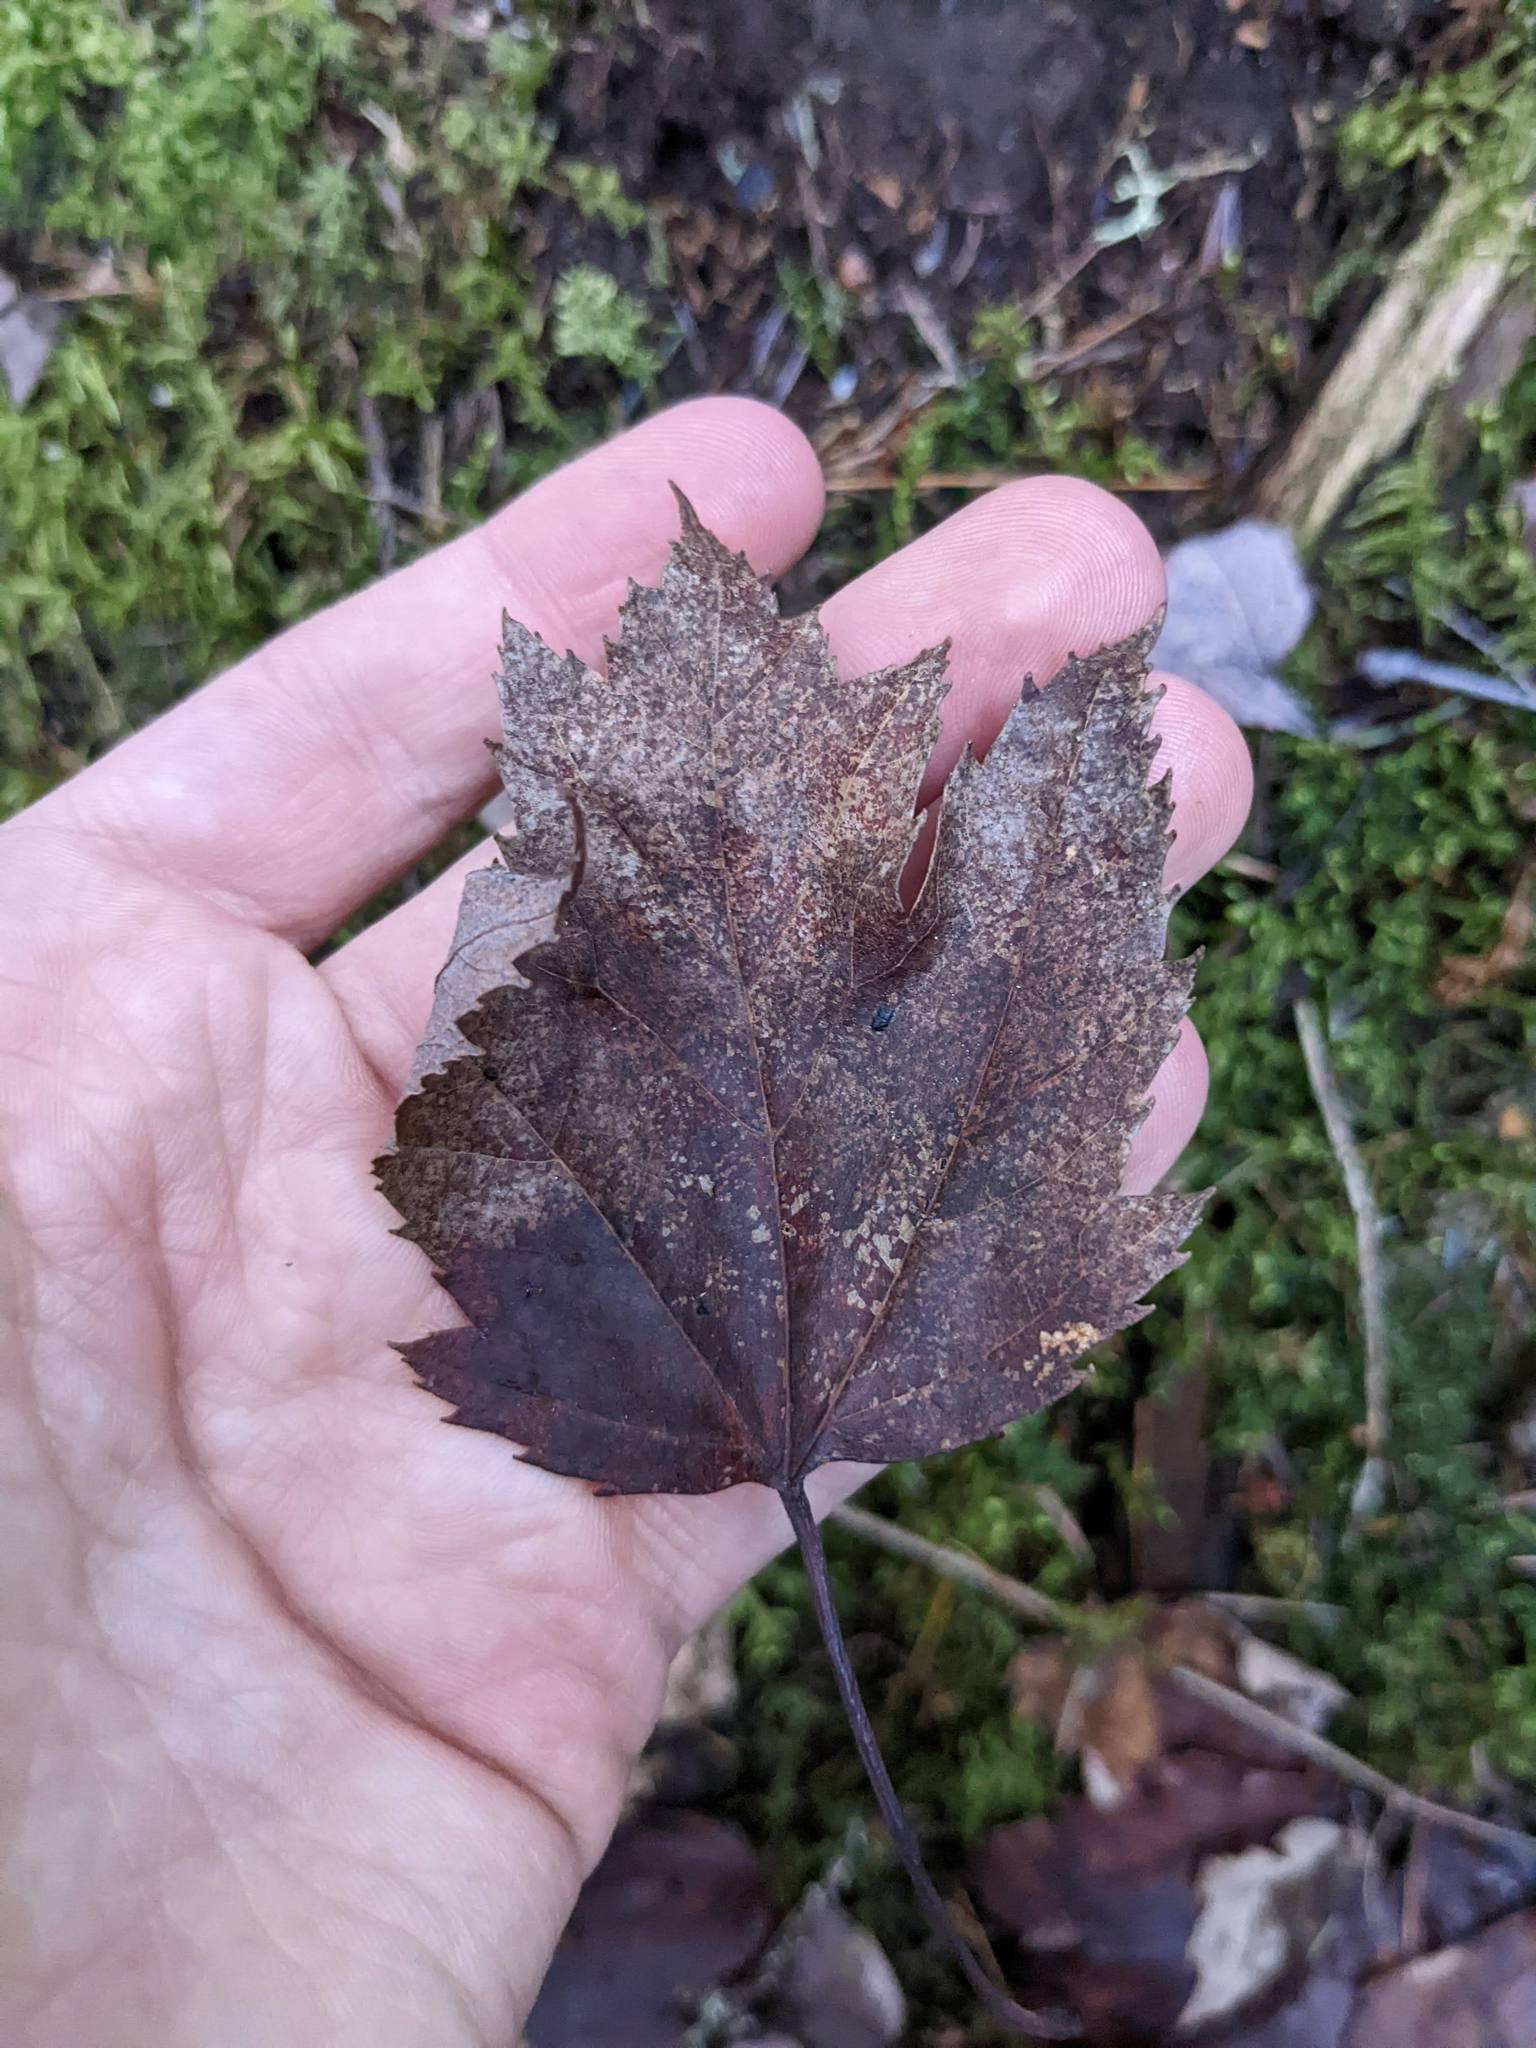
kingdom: Plantae
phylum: Tracheophyta
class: Magnoliopsida
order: Sapindales
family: Sapindaceae
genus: Acer
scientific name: Acer rubrum
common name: Red maple
